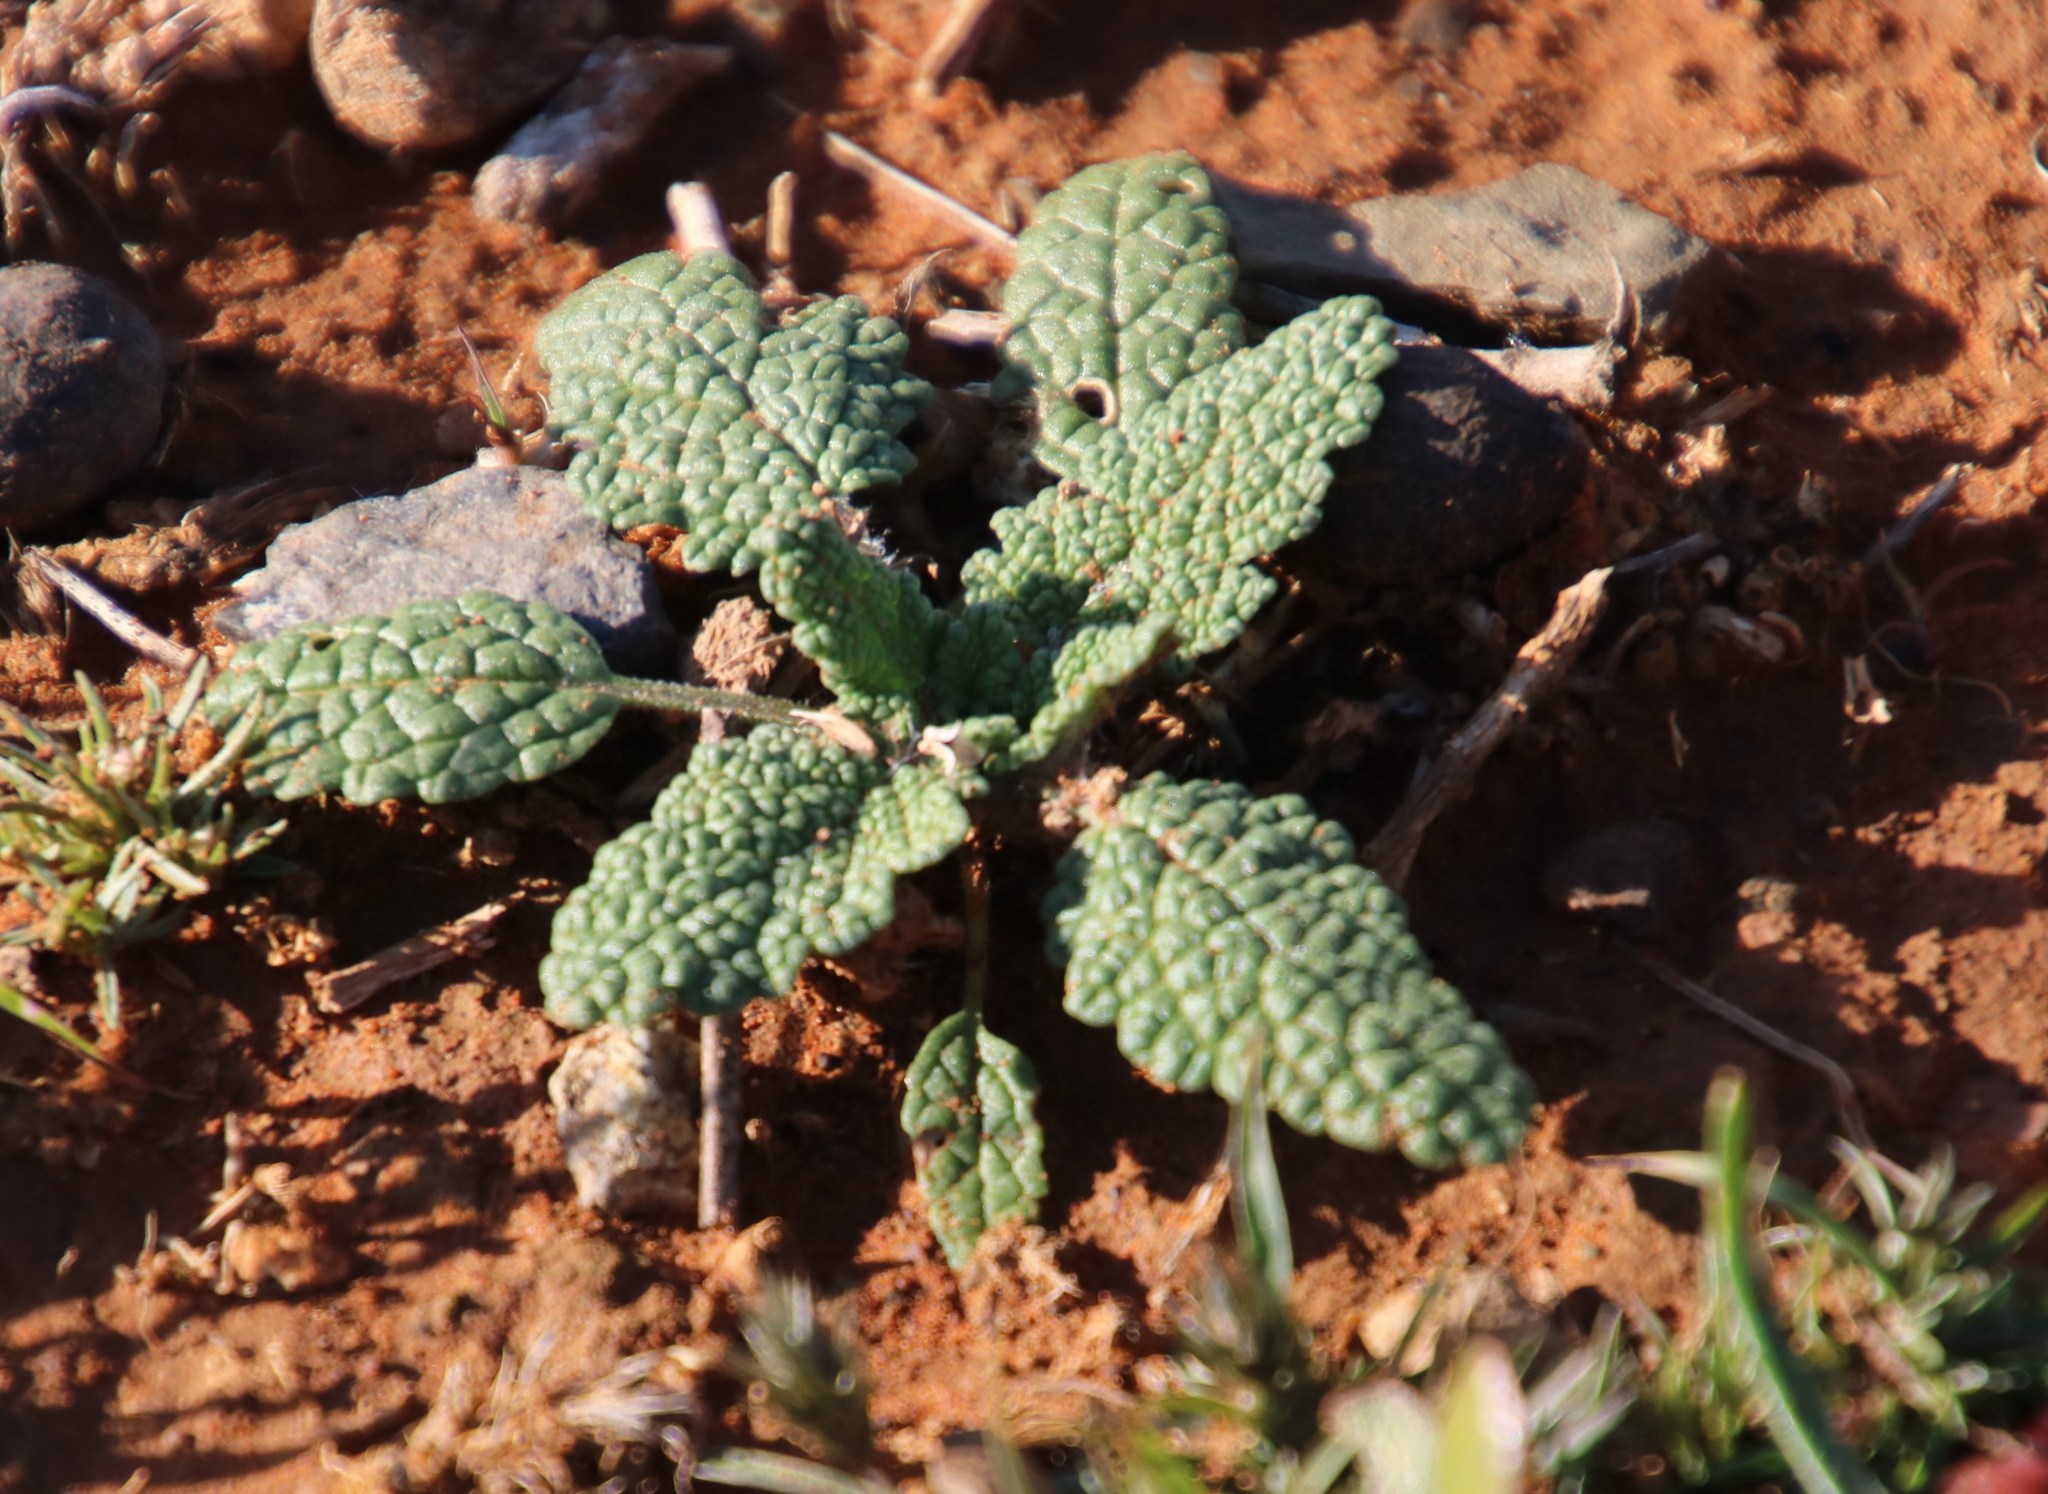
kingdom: Plantae
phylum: Tracheophyta
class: Magnoliopsida
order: Lamiales
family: Lamiaceae
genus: Salvia
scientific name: Salvia disermas
